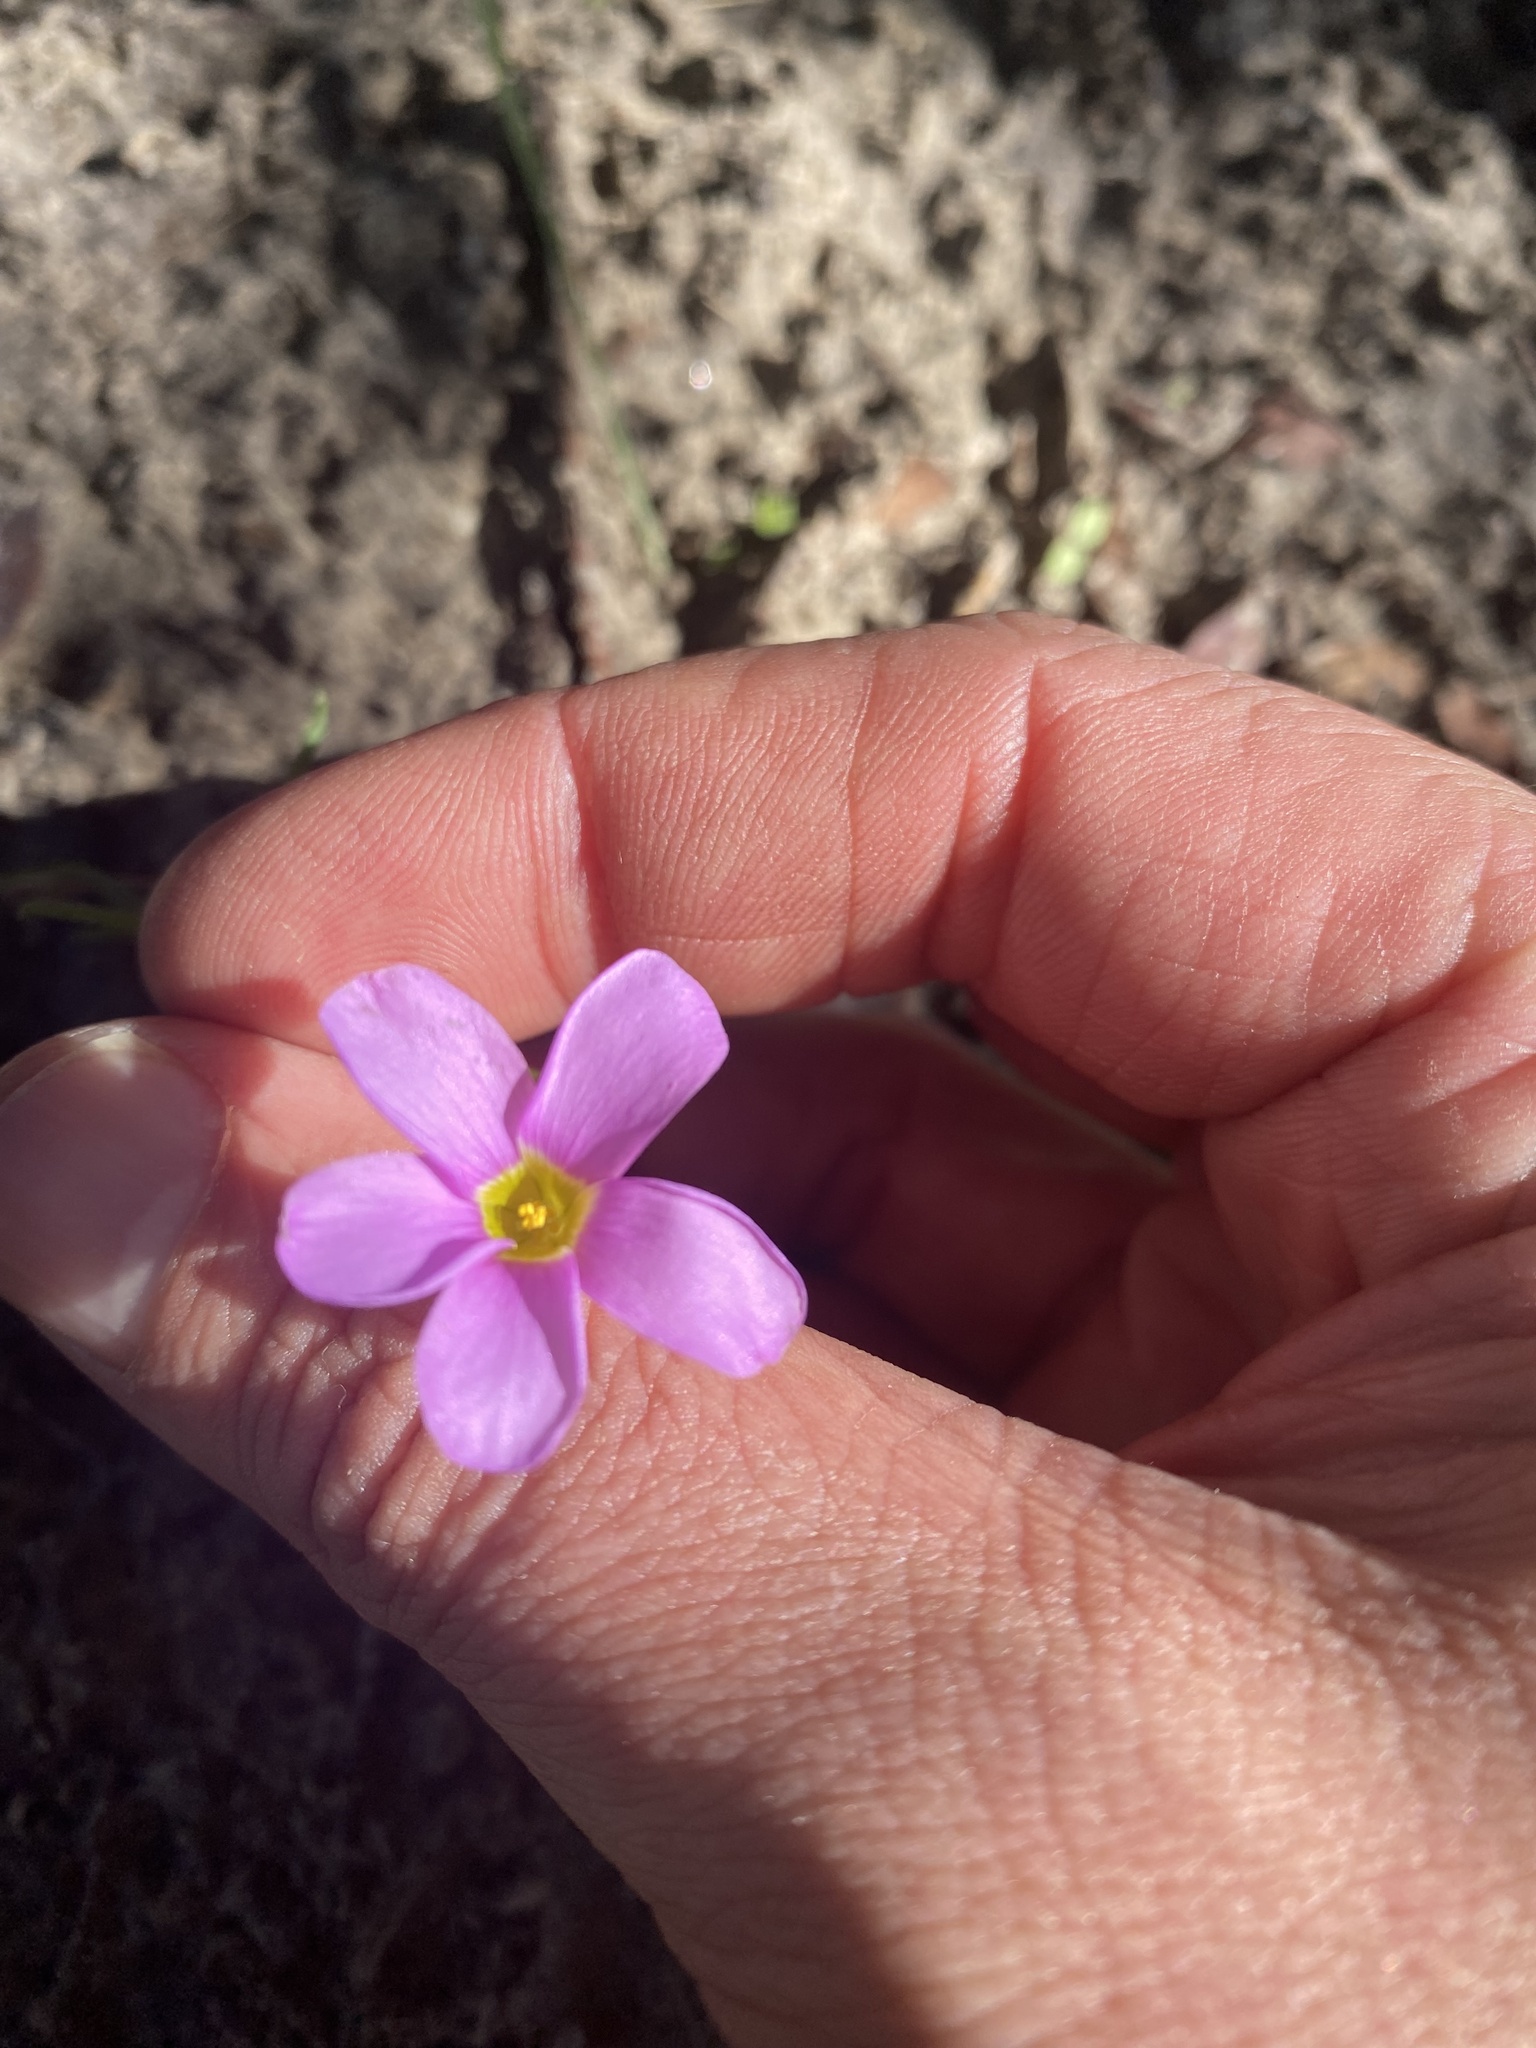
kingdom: Plantae
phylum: Tracheophyta
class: Magnoliopsida
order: Oxalidales
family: Oxalidaceae
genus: Oxalis
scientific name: Oxalis polyphylla
